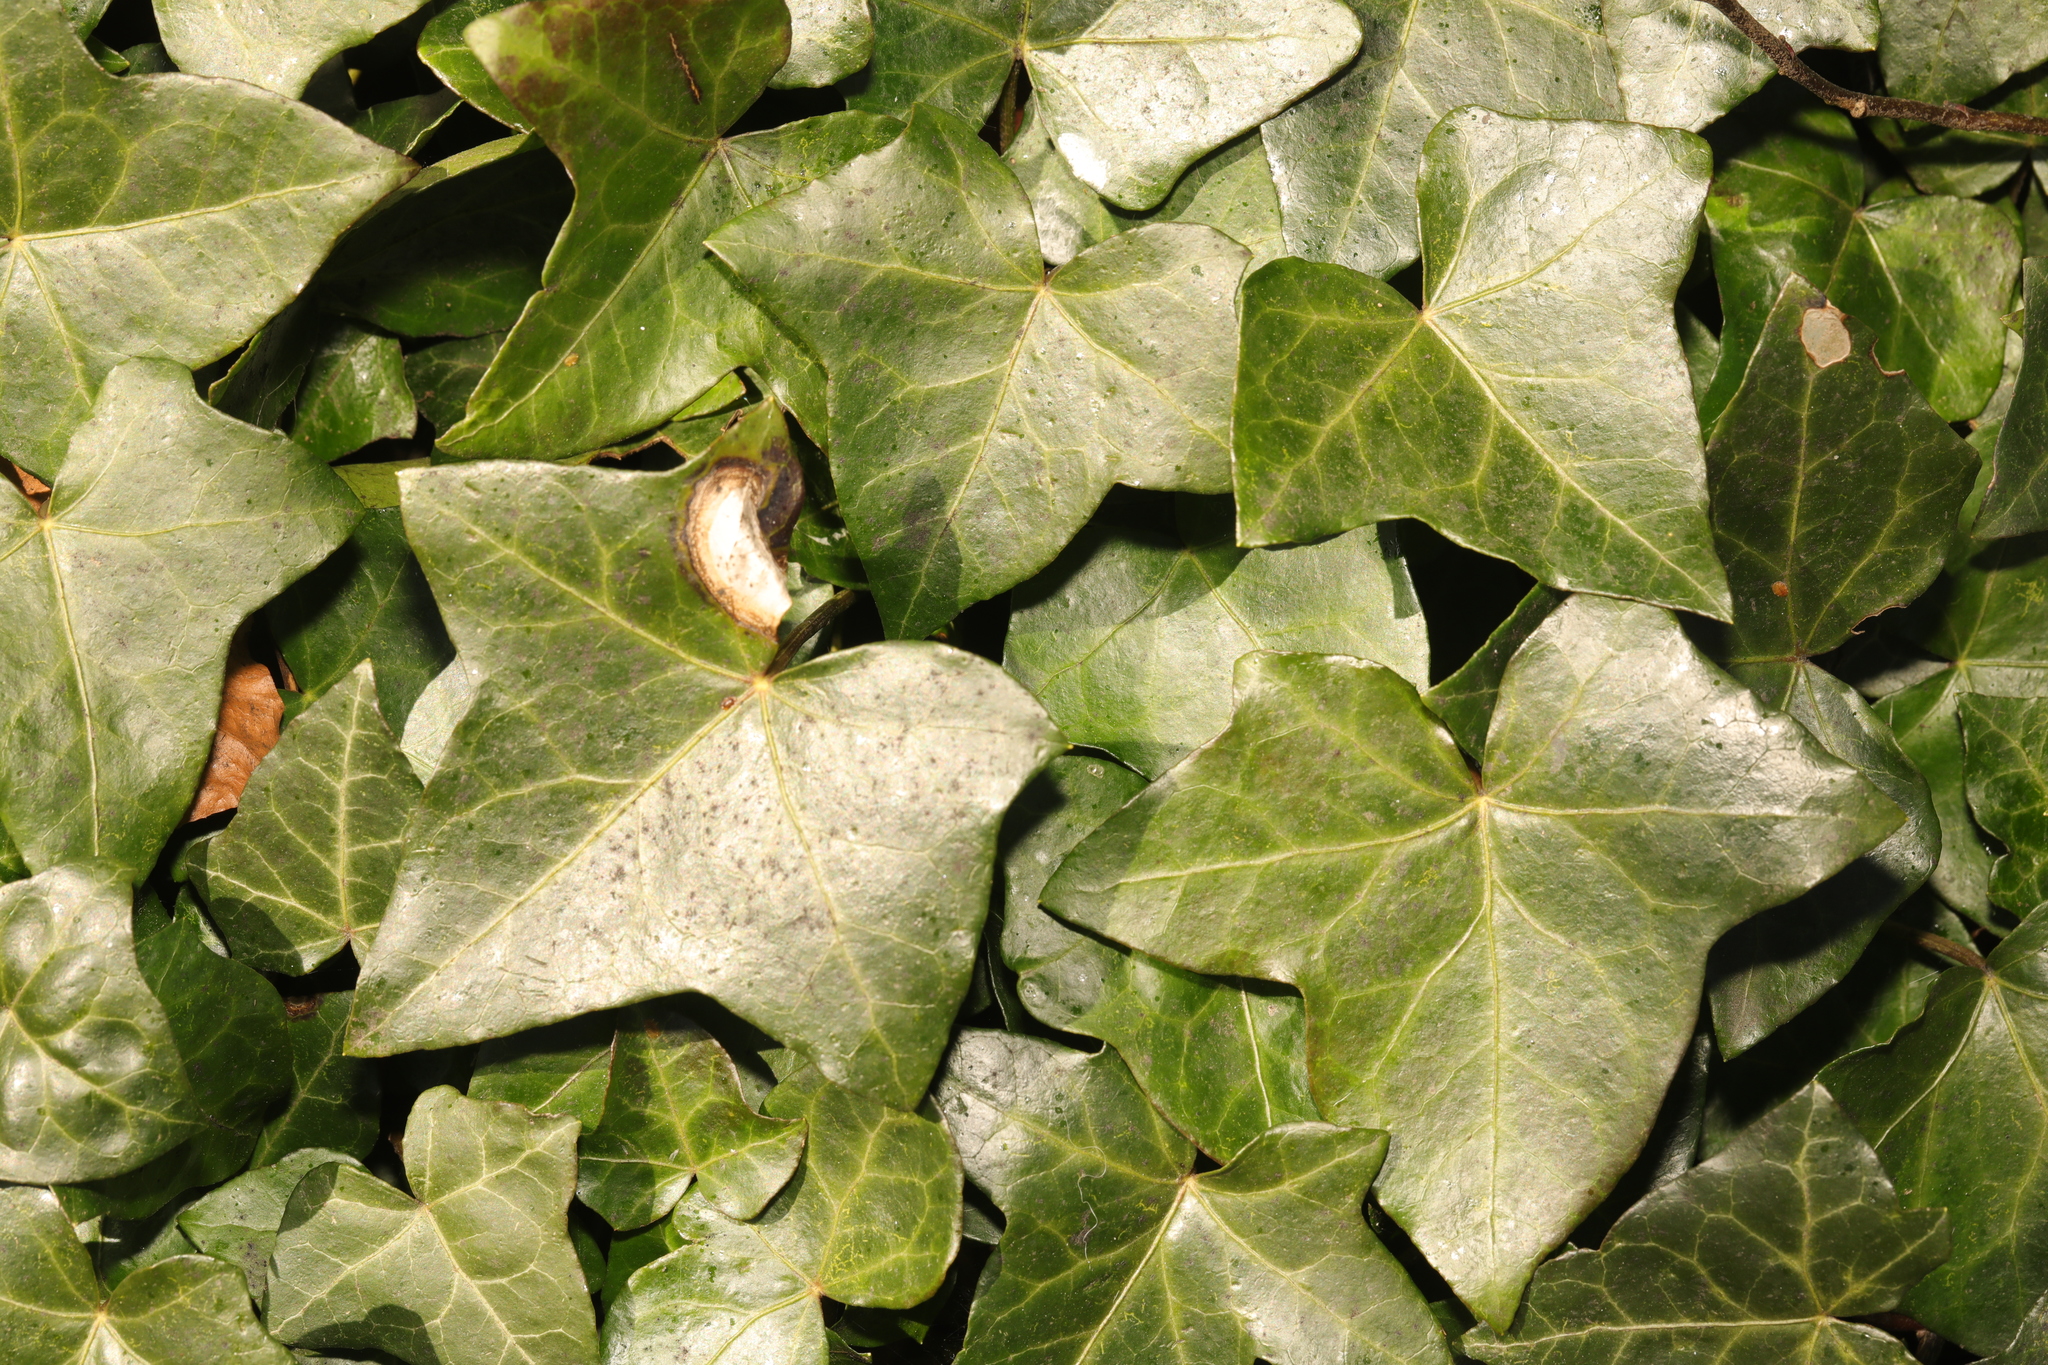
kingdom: Plantae
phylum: Tracheophyta
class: Magnoliopsida
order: Apiales
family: Araliaceae
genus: Hedera
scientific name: Hedera helix
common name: Ivy
